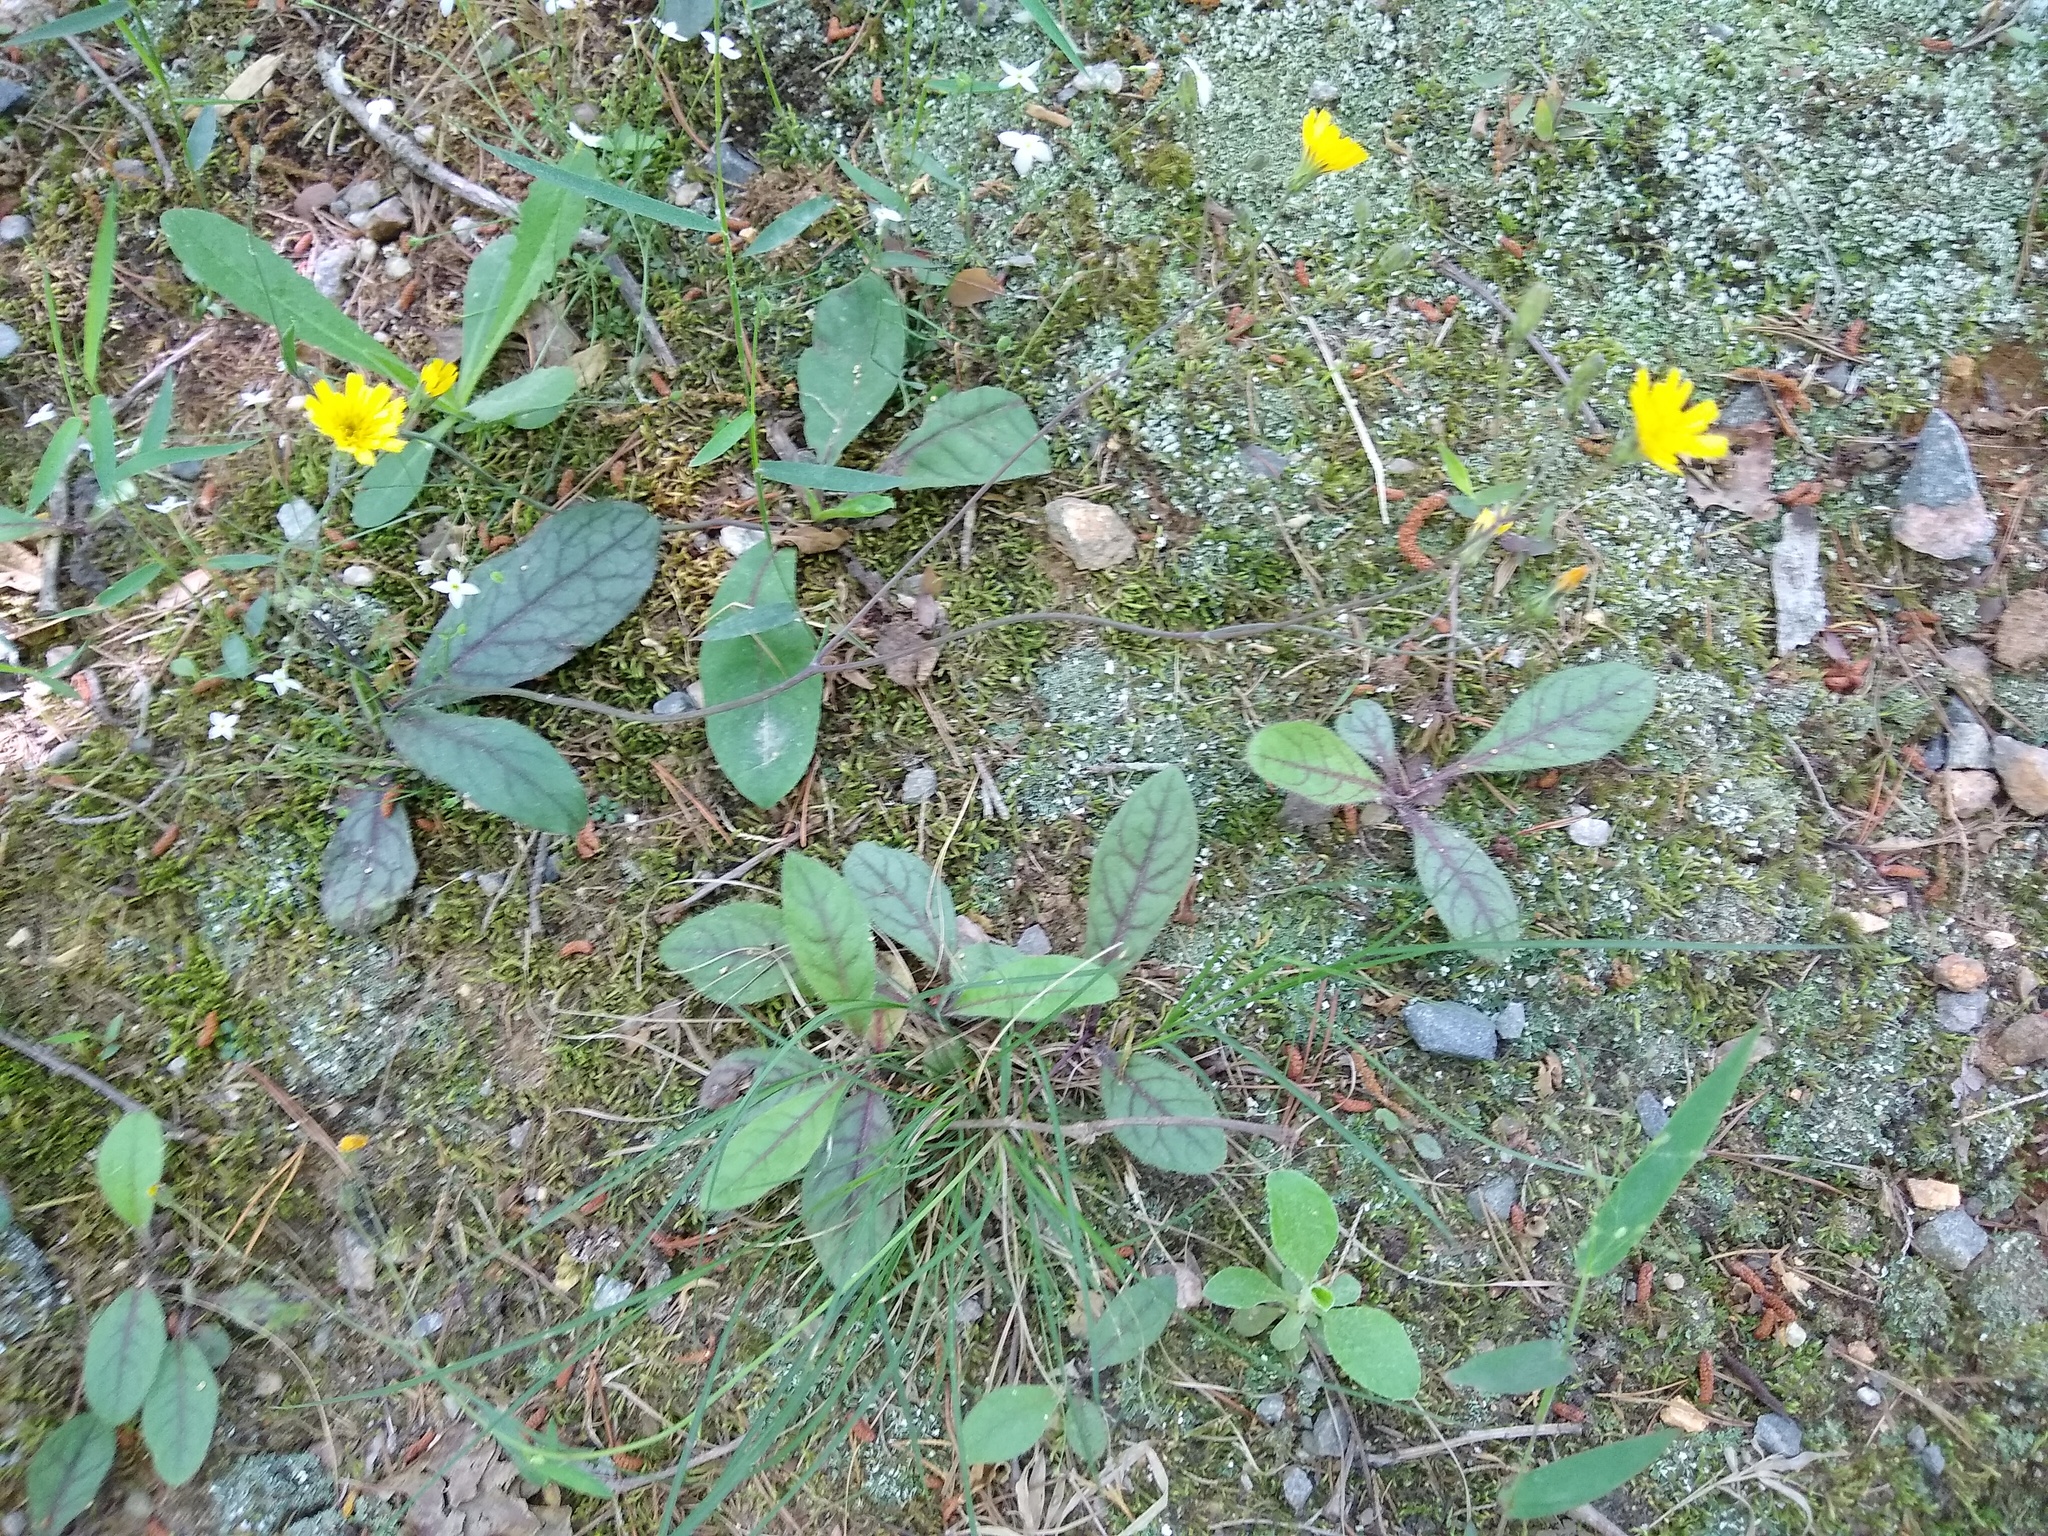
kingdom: Plantae
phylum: Tracheophyta
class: Magnoliopsida
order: Asterales
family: Asteraceae
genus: Hieracium
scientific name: Hieracium venosum
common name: Rattlesnake hawkweed
